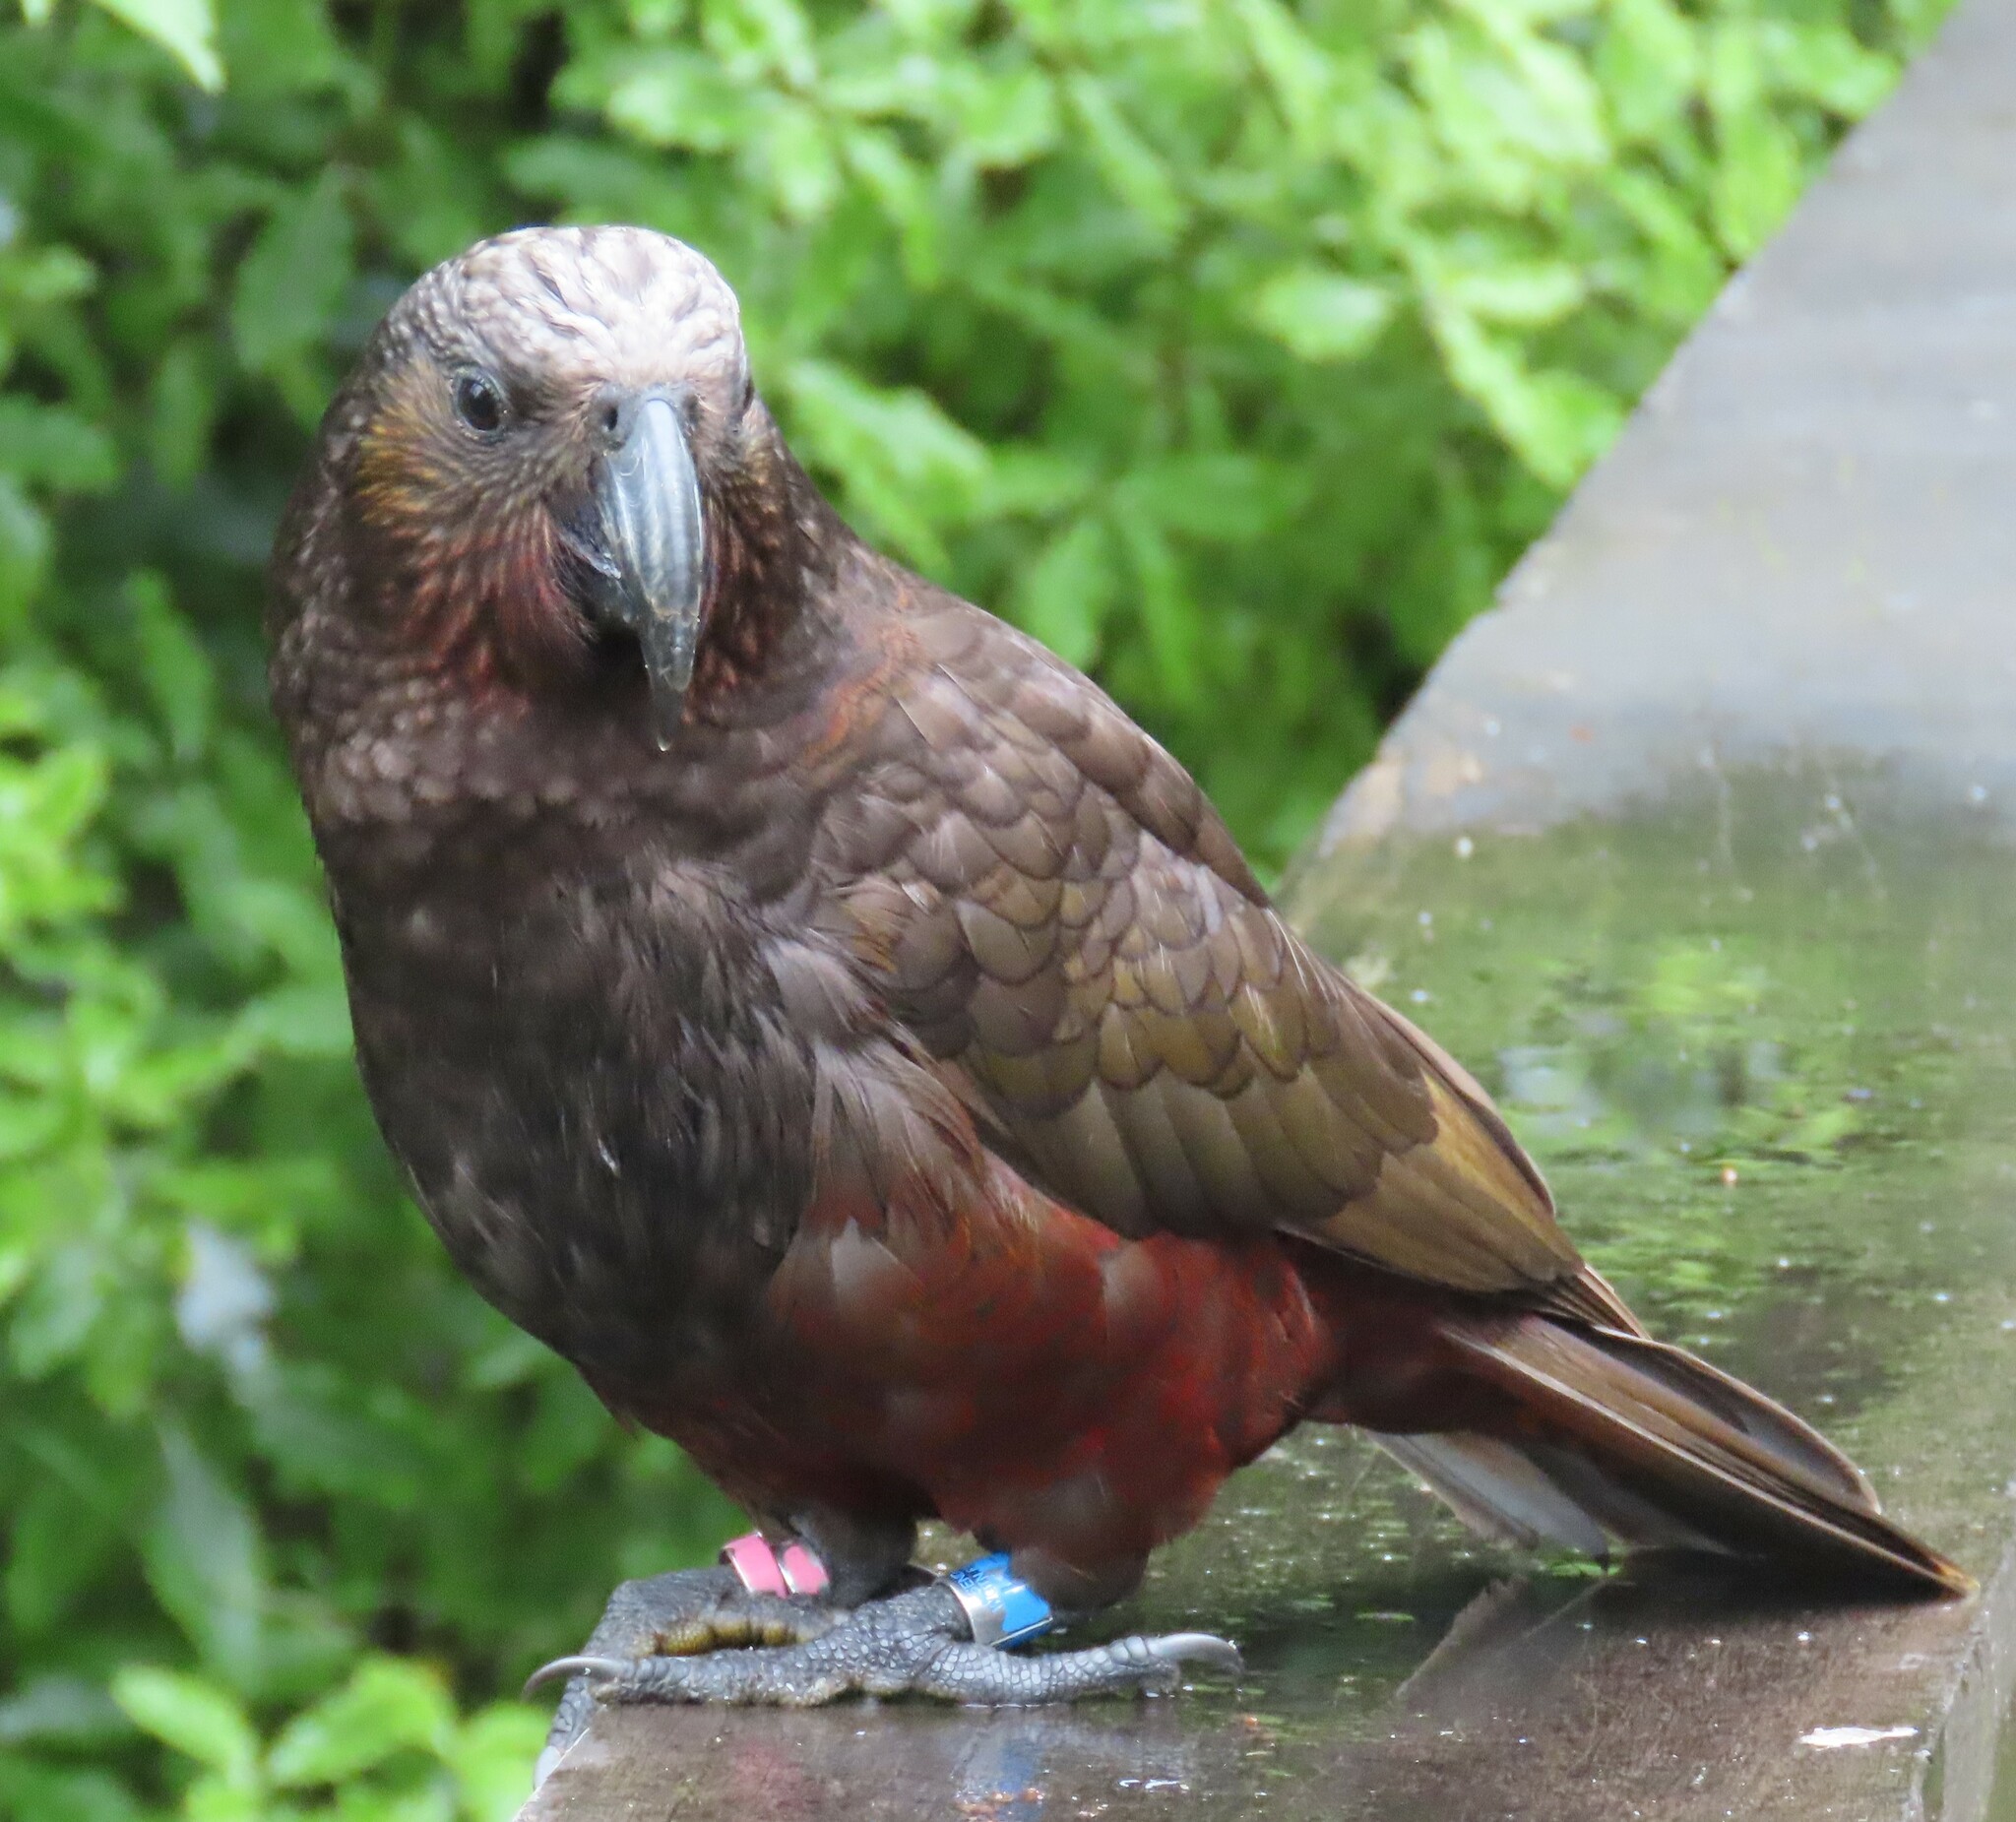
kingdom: Animalia
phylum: Chordata
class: Aves
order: Psittaciformes
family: Psittacidae
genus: Nestor
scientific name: Nestor meridionalis
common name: New zealand kaka
